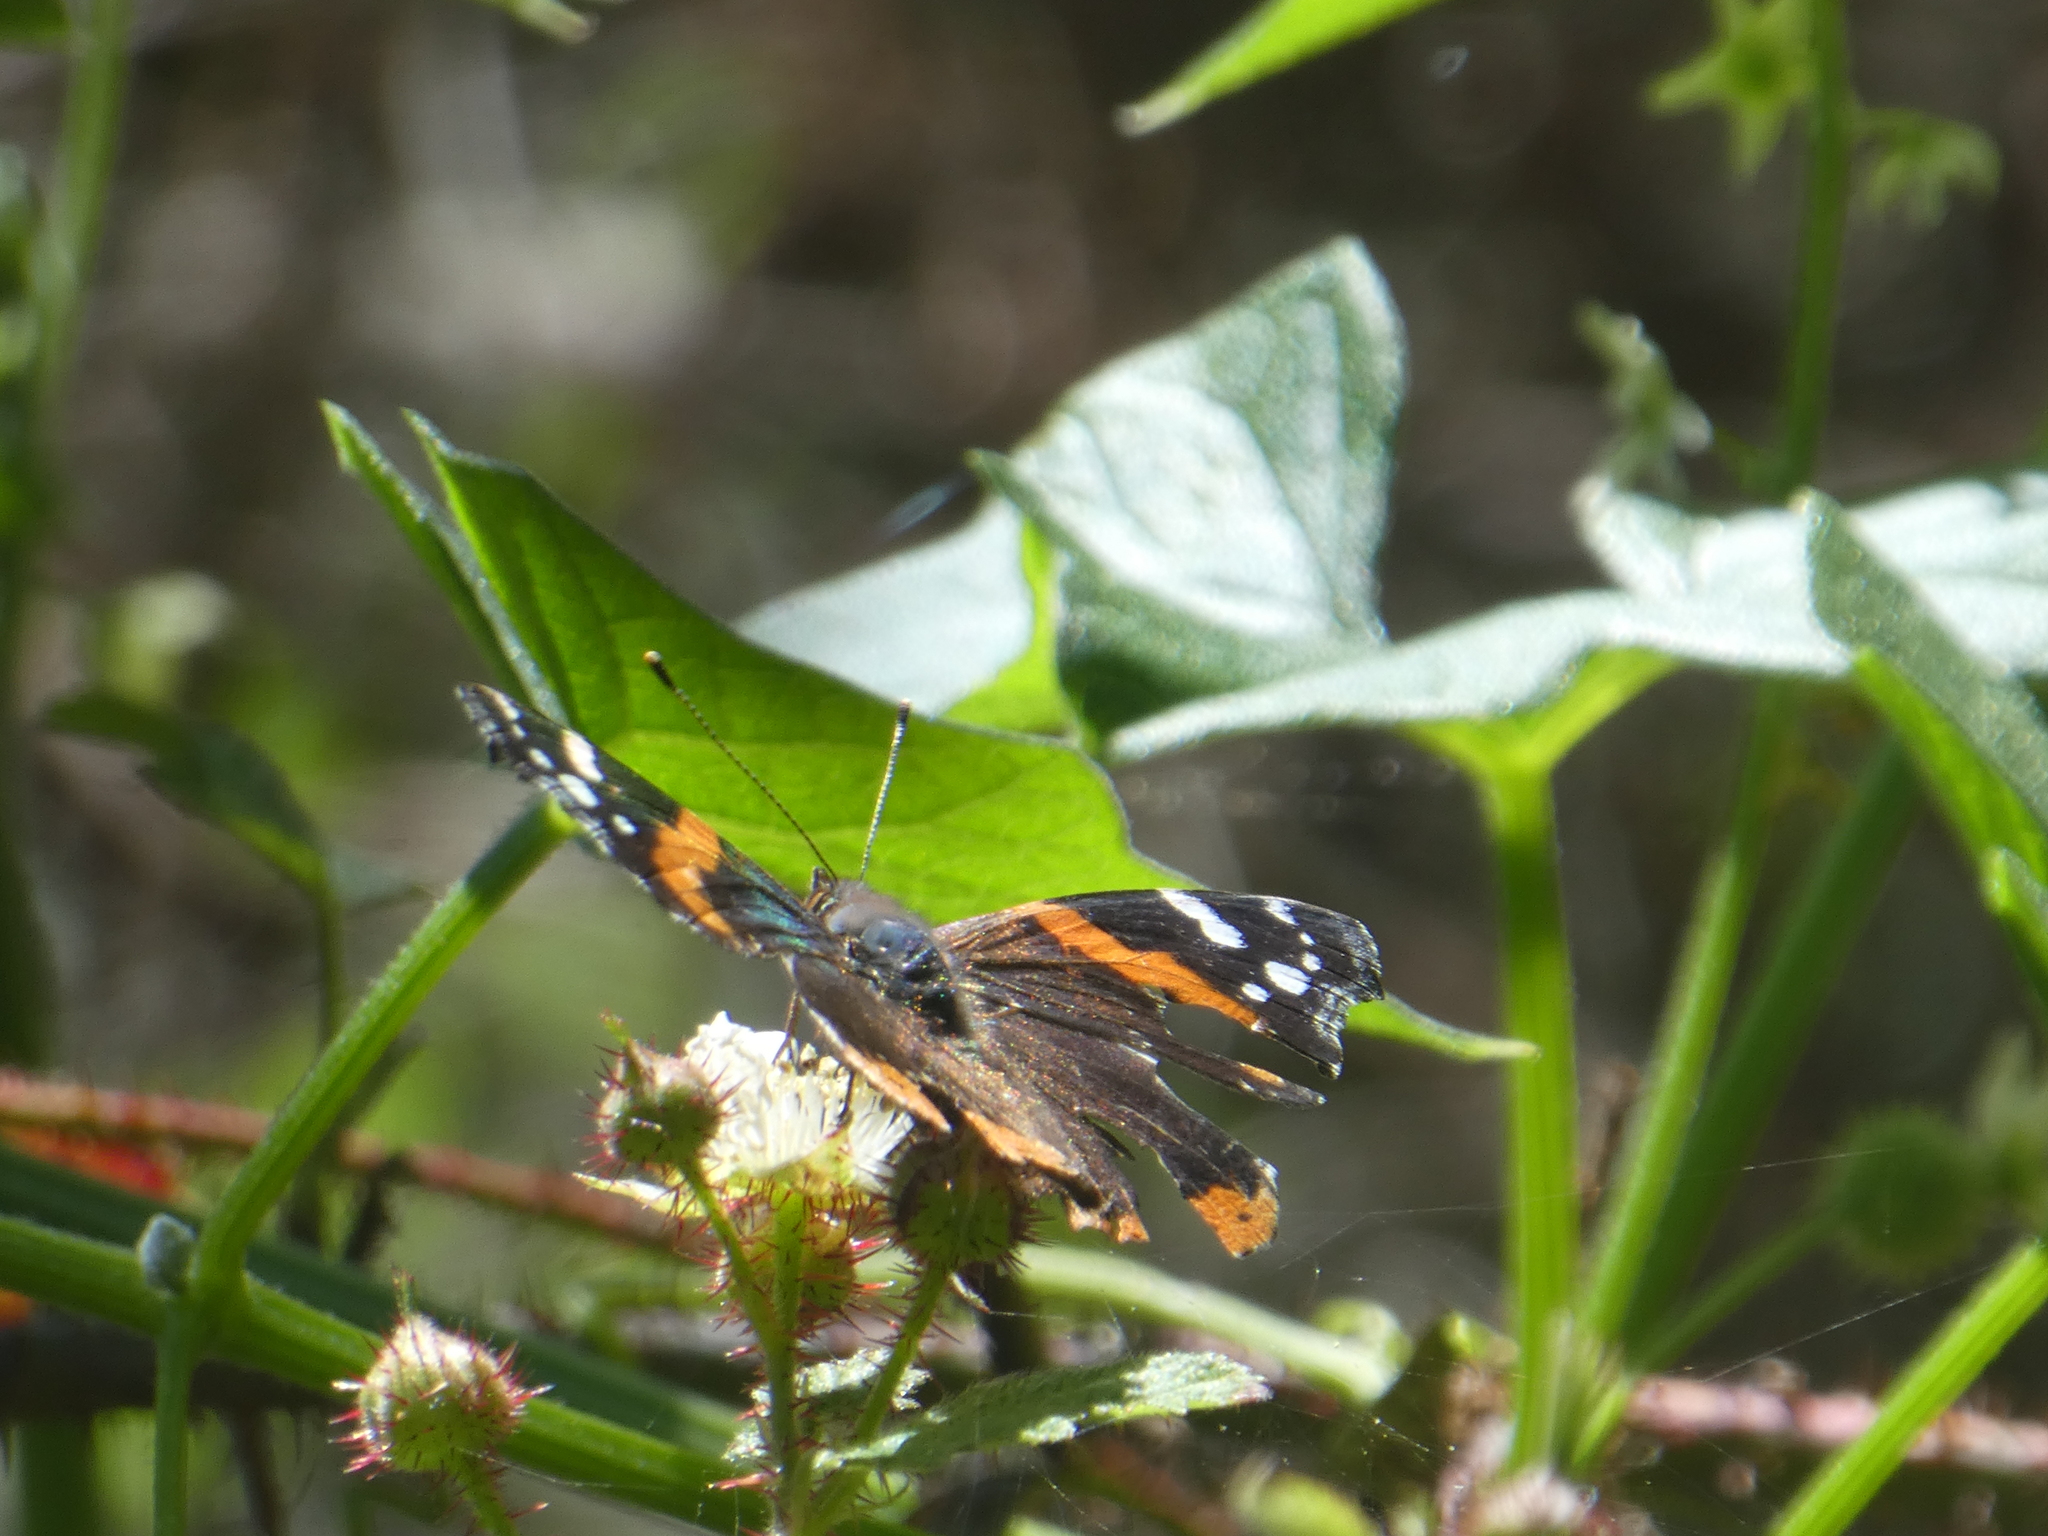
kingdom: Animalia
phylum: Arthropoda
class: Insecta
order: Lepidoptera
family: Nymphalidae
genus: Vanessa
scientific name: Vanessa atalanta
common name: Red admiral
